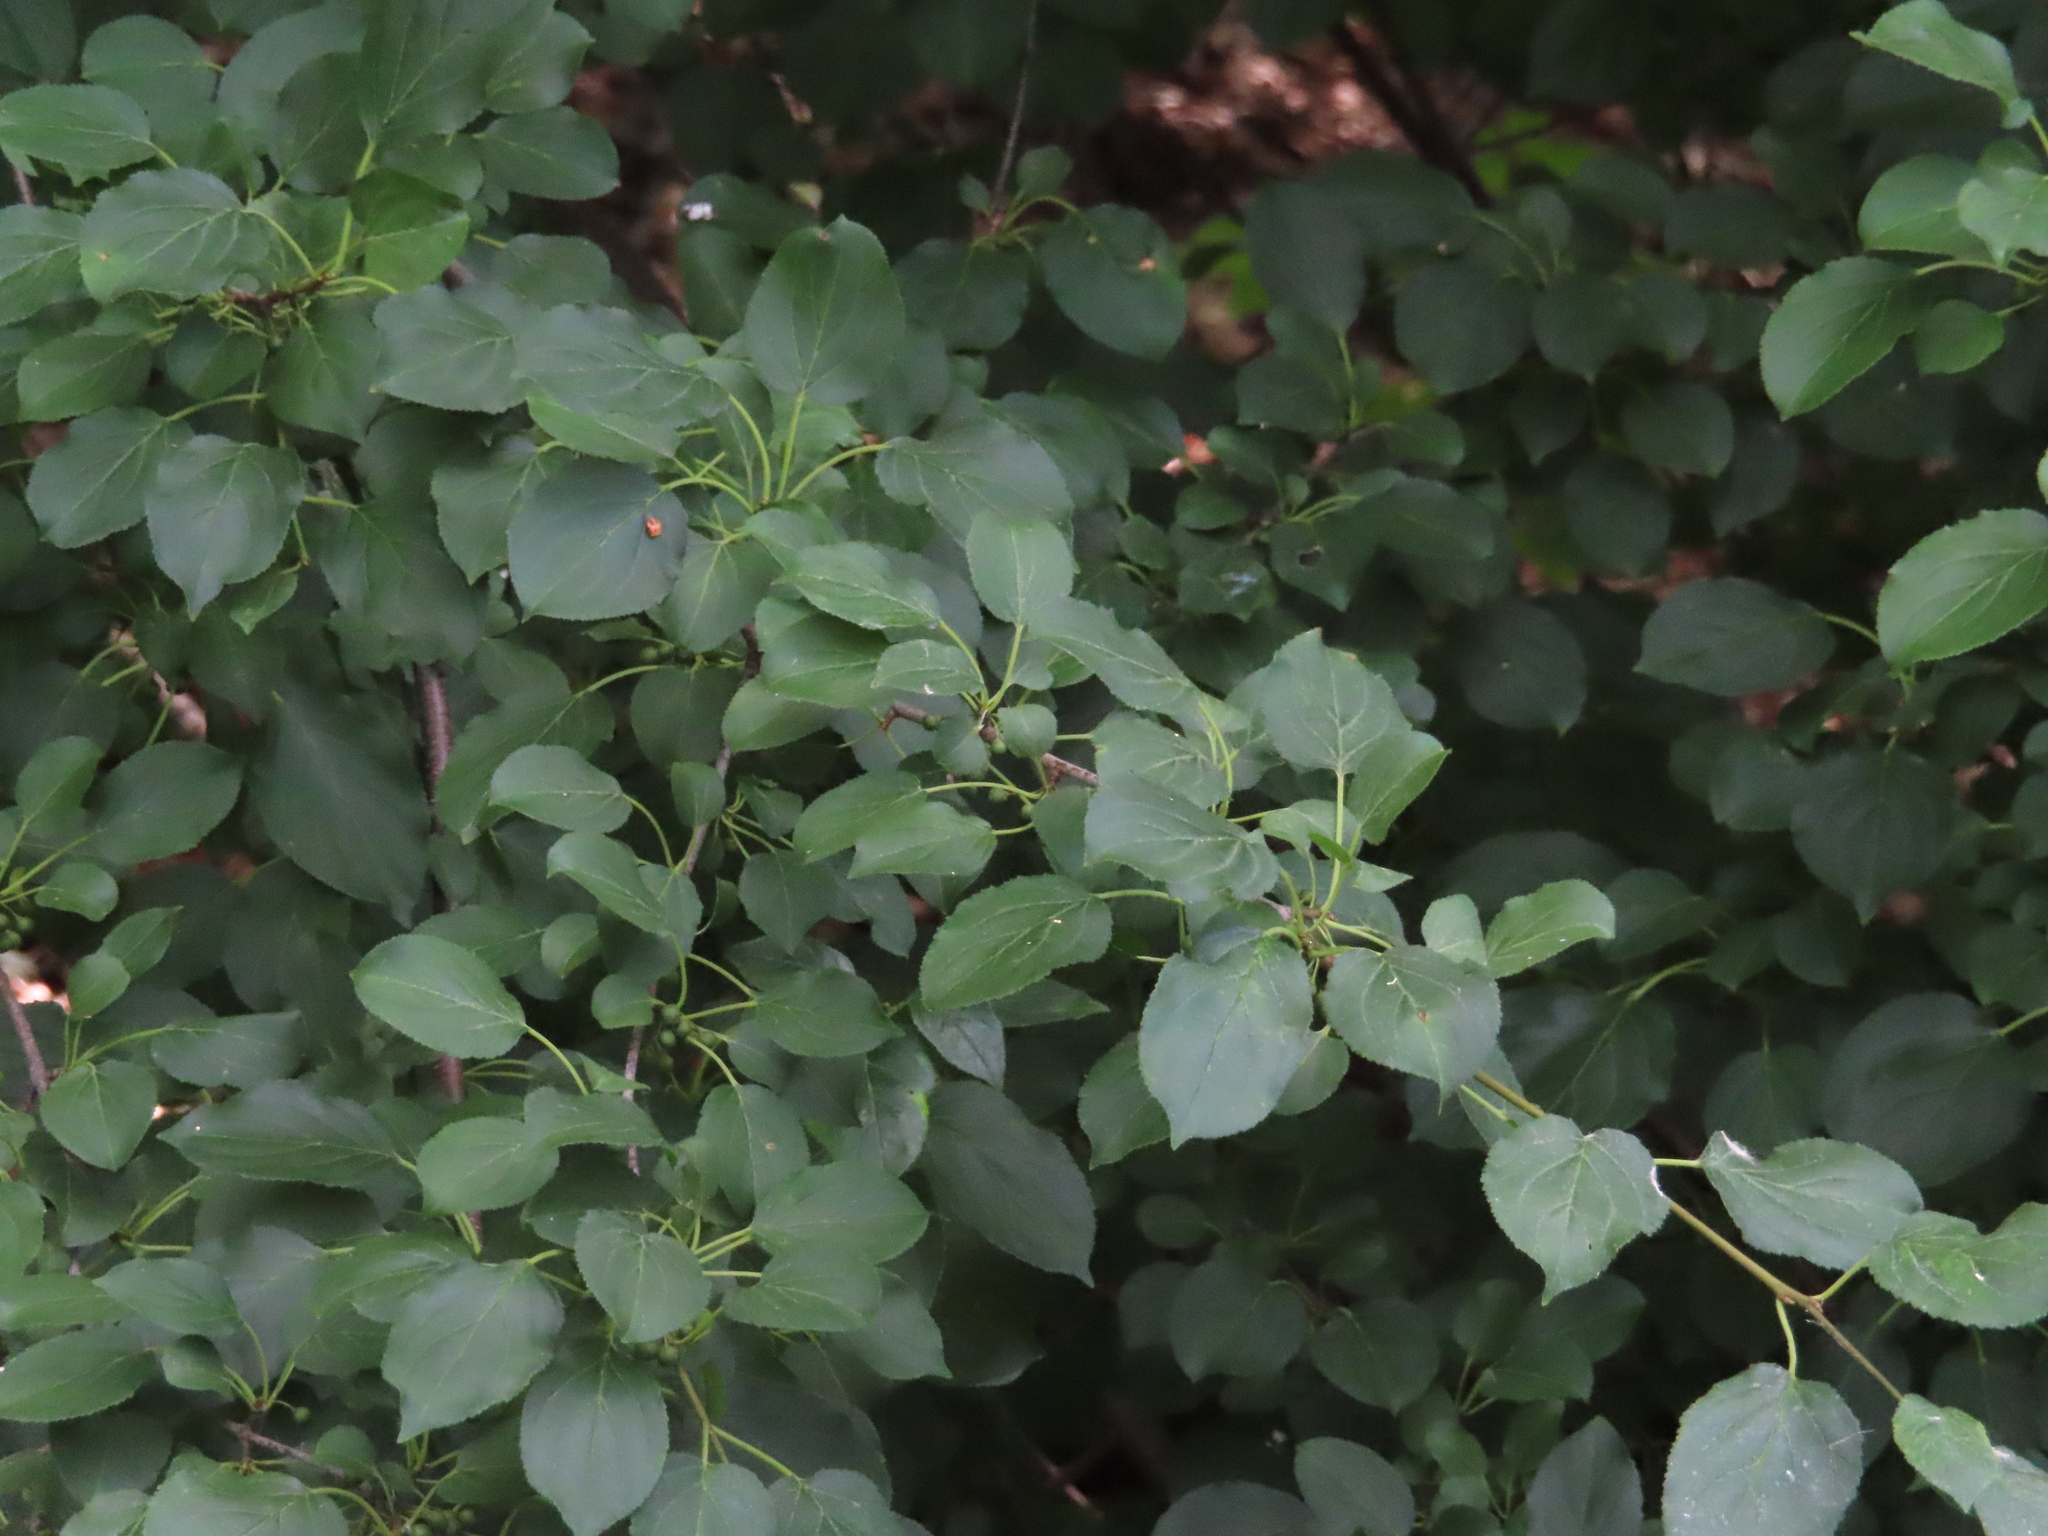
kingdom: Plantae
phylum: Tracheophyta
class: Magnoliopsida
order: Rosales
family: Rhamnaceae
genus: Rhamnus
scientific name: Rhamnus cathartica
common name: Common buckthorn
